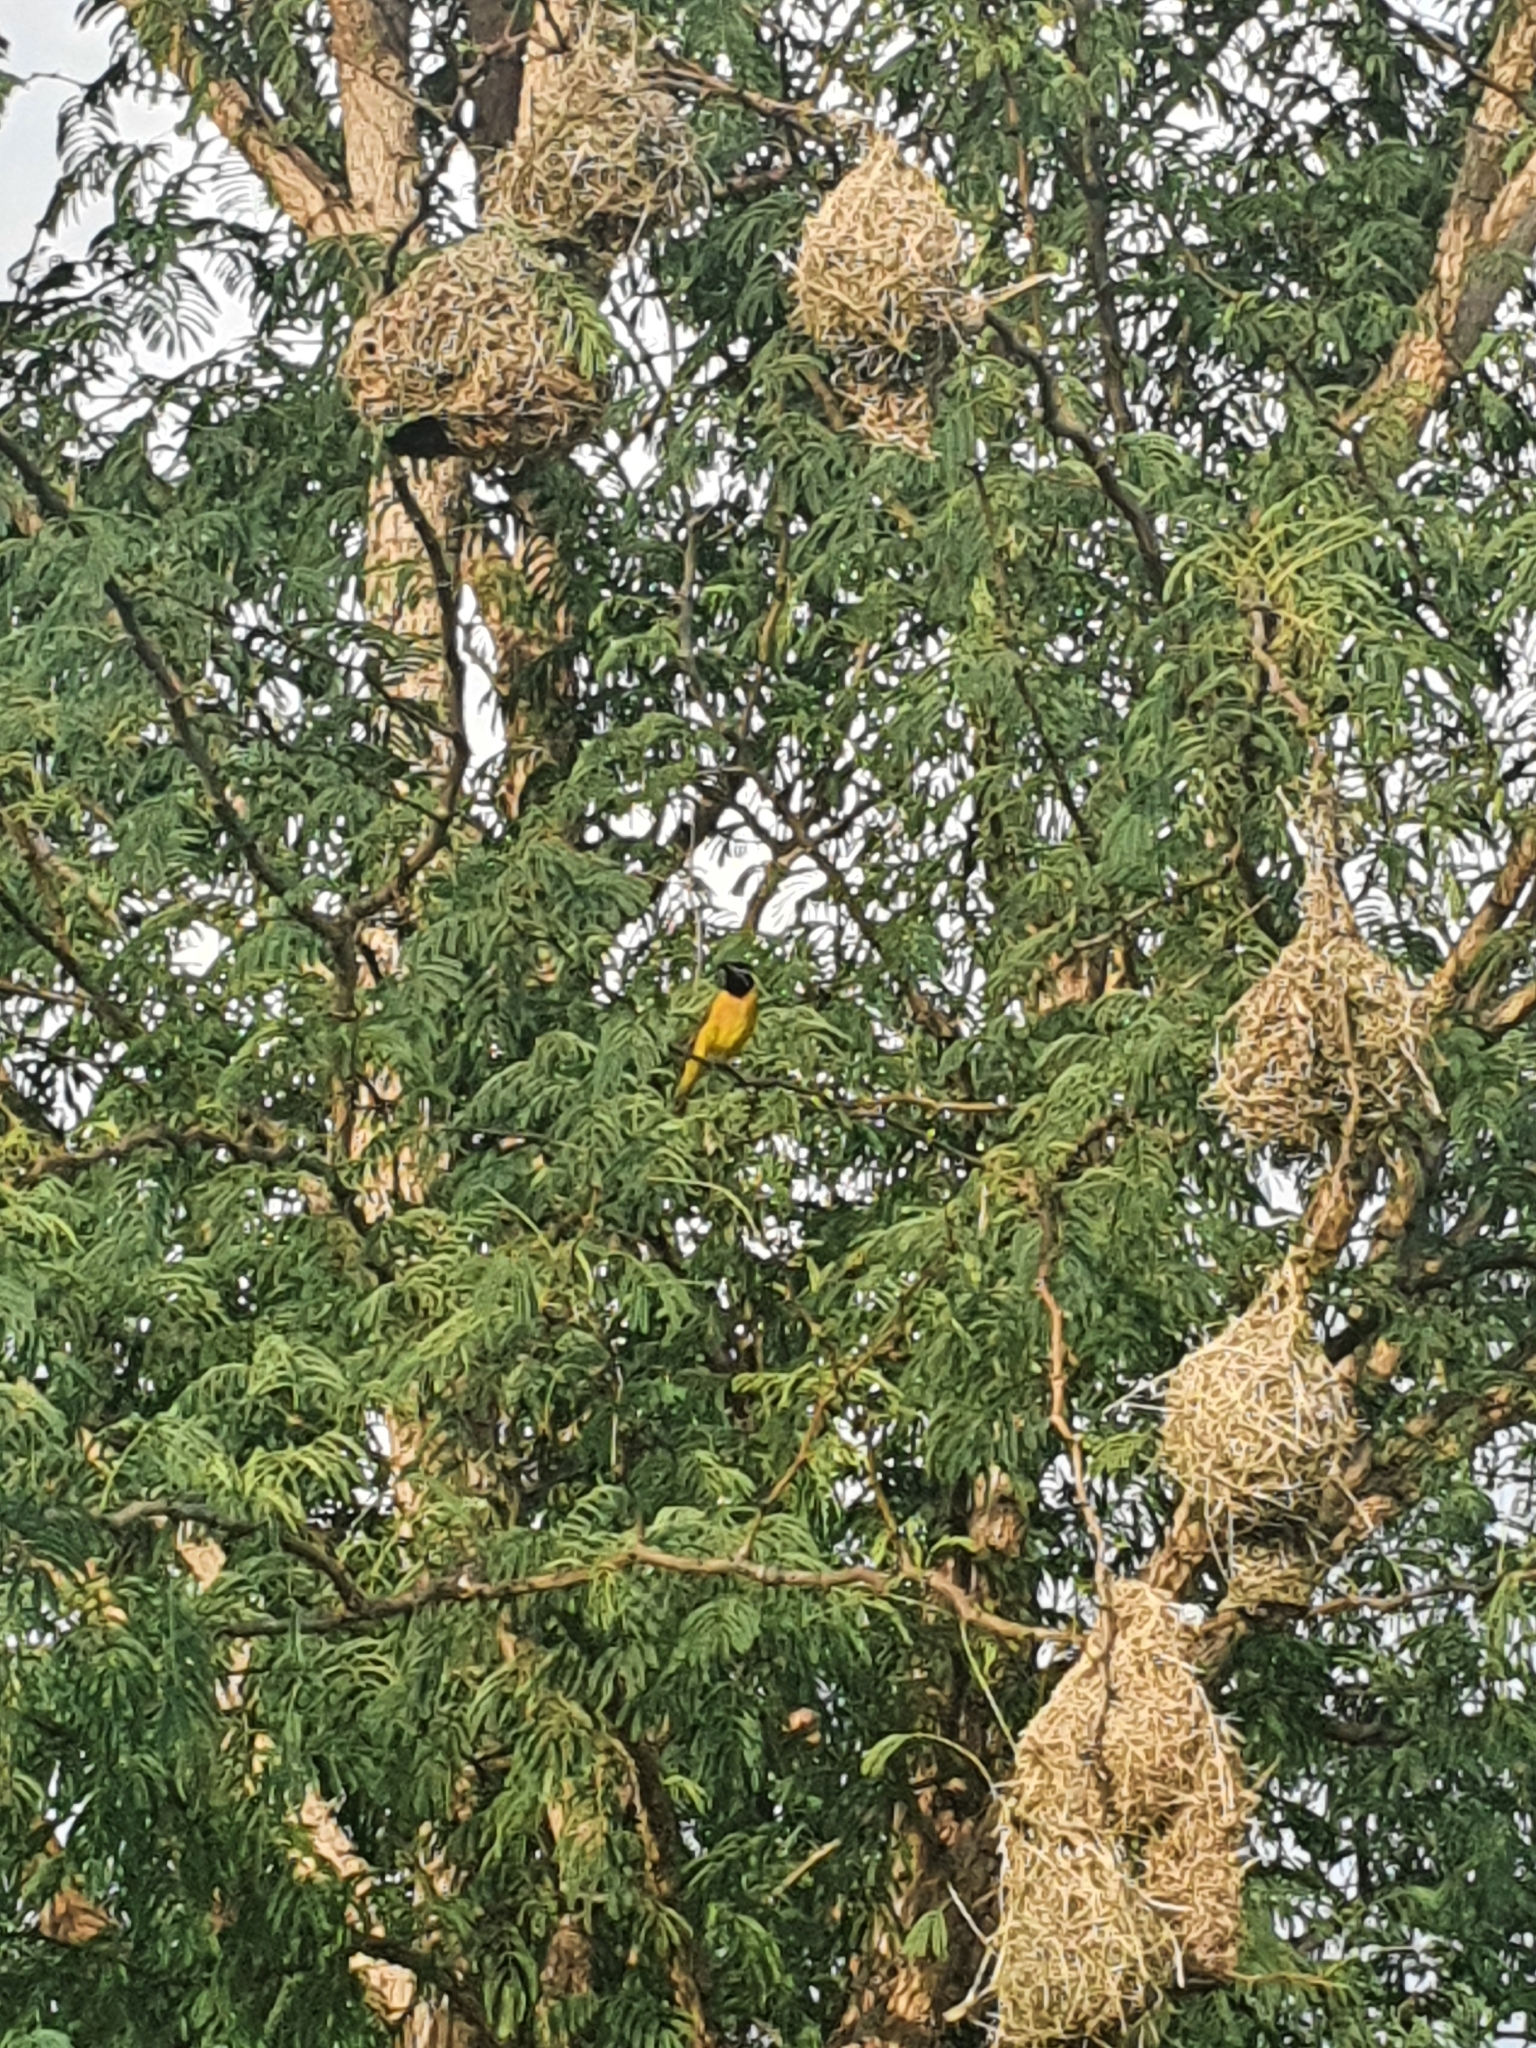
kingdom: Animalia
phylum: Chordata
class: Aves
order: Passeriformes
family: Ploceidae
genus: Ploceus
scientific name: Ploceus intermedius
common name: Lesser masked weaver
